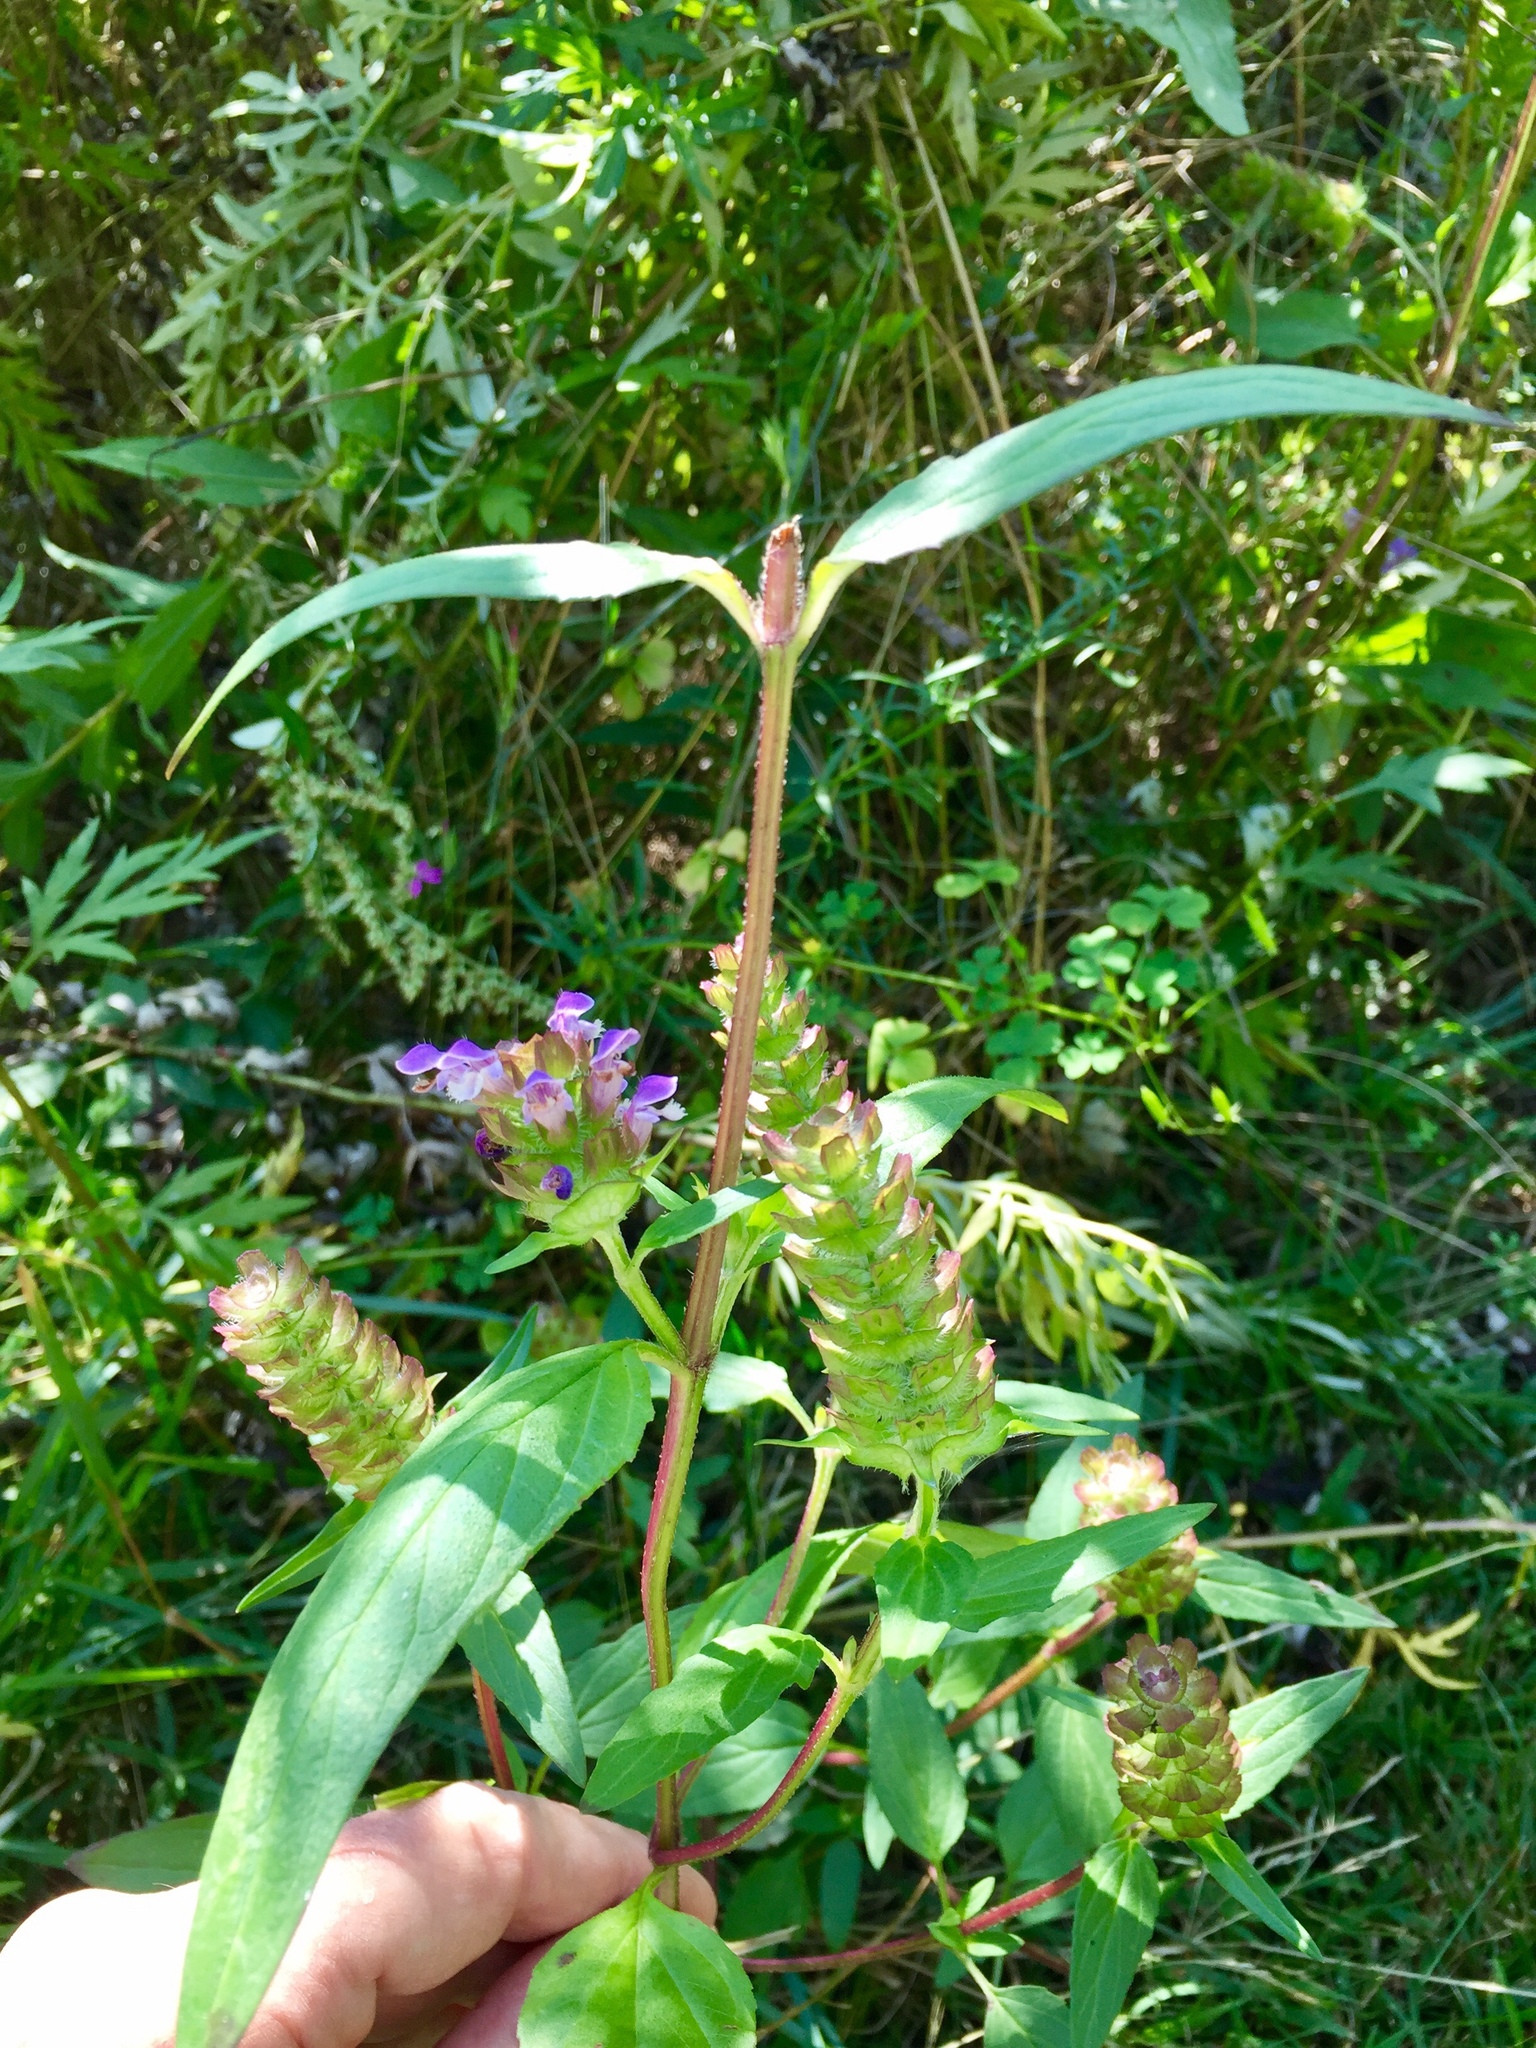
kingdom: Plantae
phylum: Tracheophyta
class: Magnoliopsida
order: Lamiales
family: Lamiaceae
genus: Prunella
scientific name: Prunella vulgaris
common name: Heal-all
